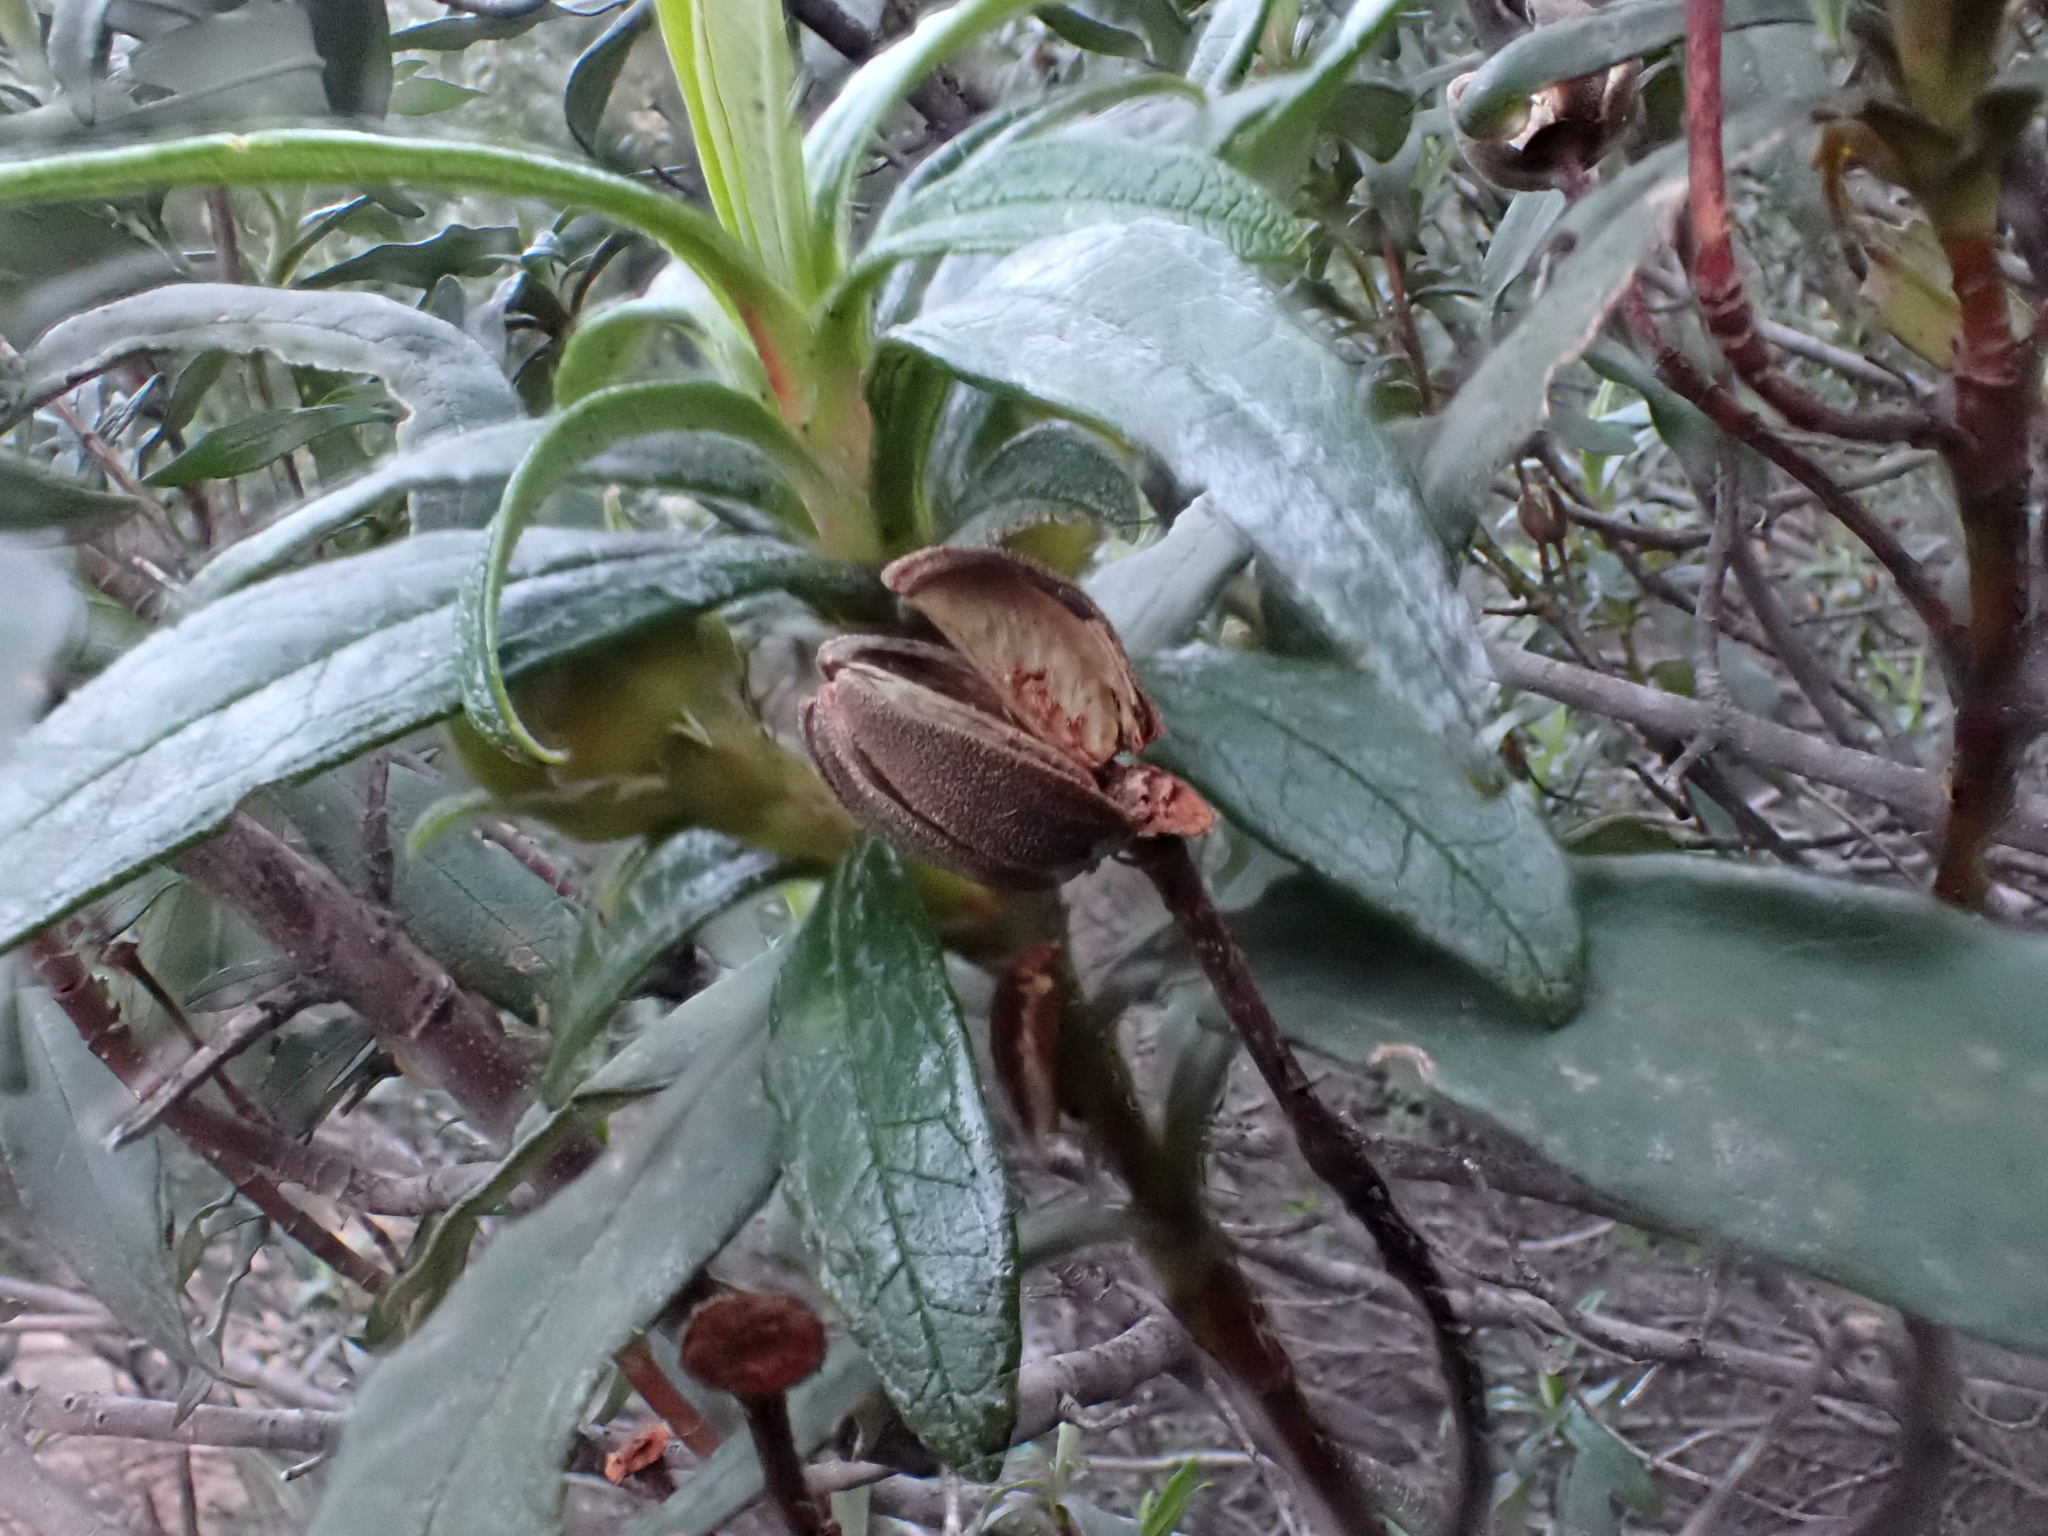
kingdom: Plantae
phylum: Tracheophyta
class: Magnoliopsida
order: Malvales
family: Cistaceae
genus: Cistus
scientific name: Cistus ladanifer
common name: Common gum cistus
